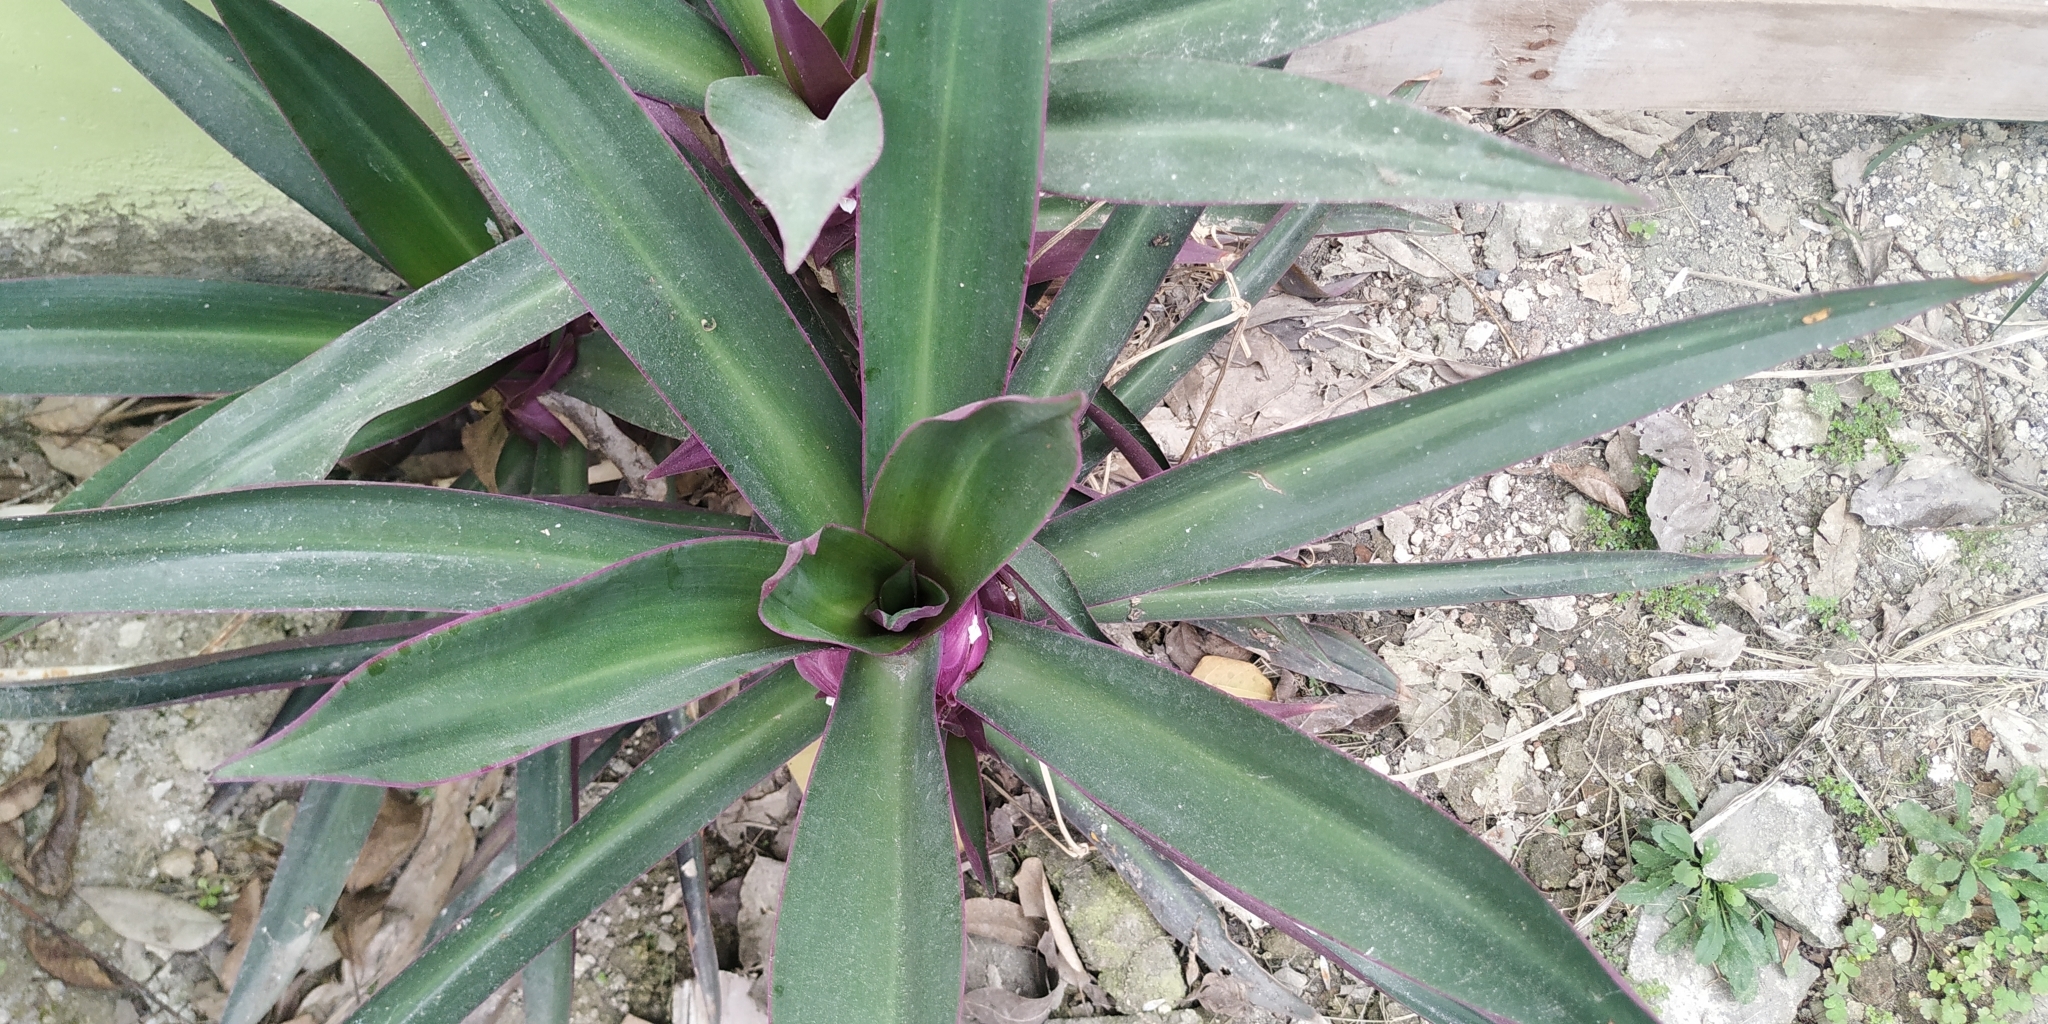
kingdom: Plantae
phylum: Tracheophyta
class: Liliopsida
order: Commelinales
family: Commelinaceae
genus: Tradescantia
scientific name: Tradescantia spathacea
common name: Boatlily
